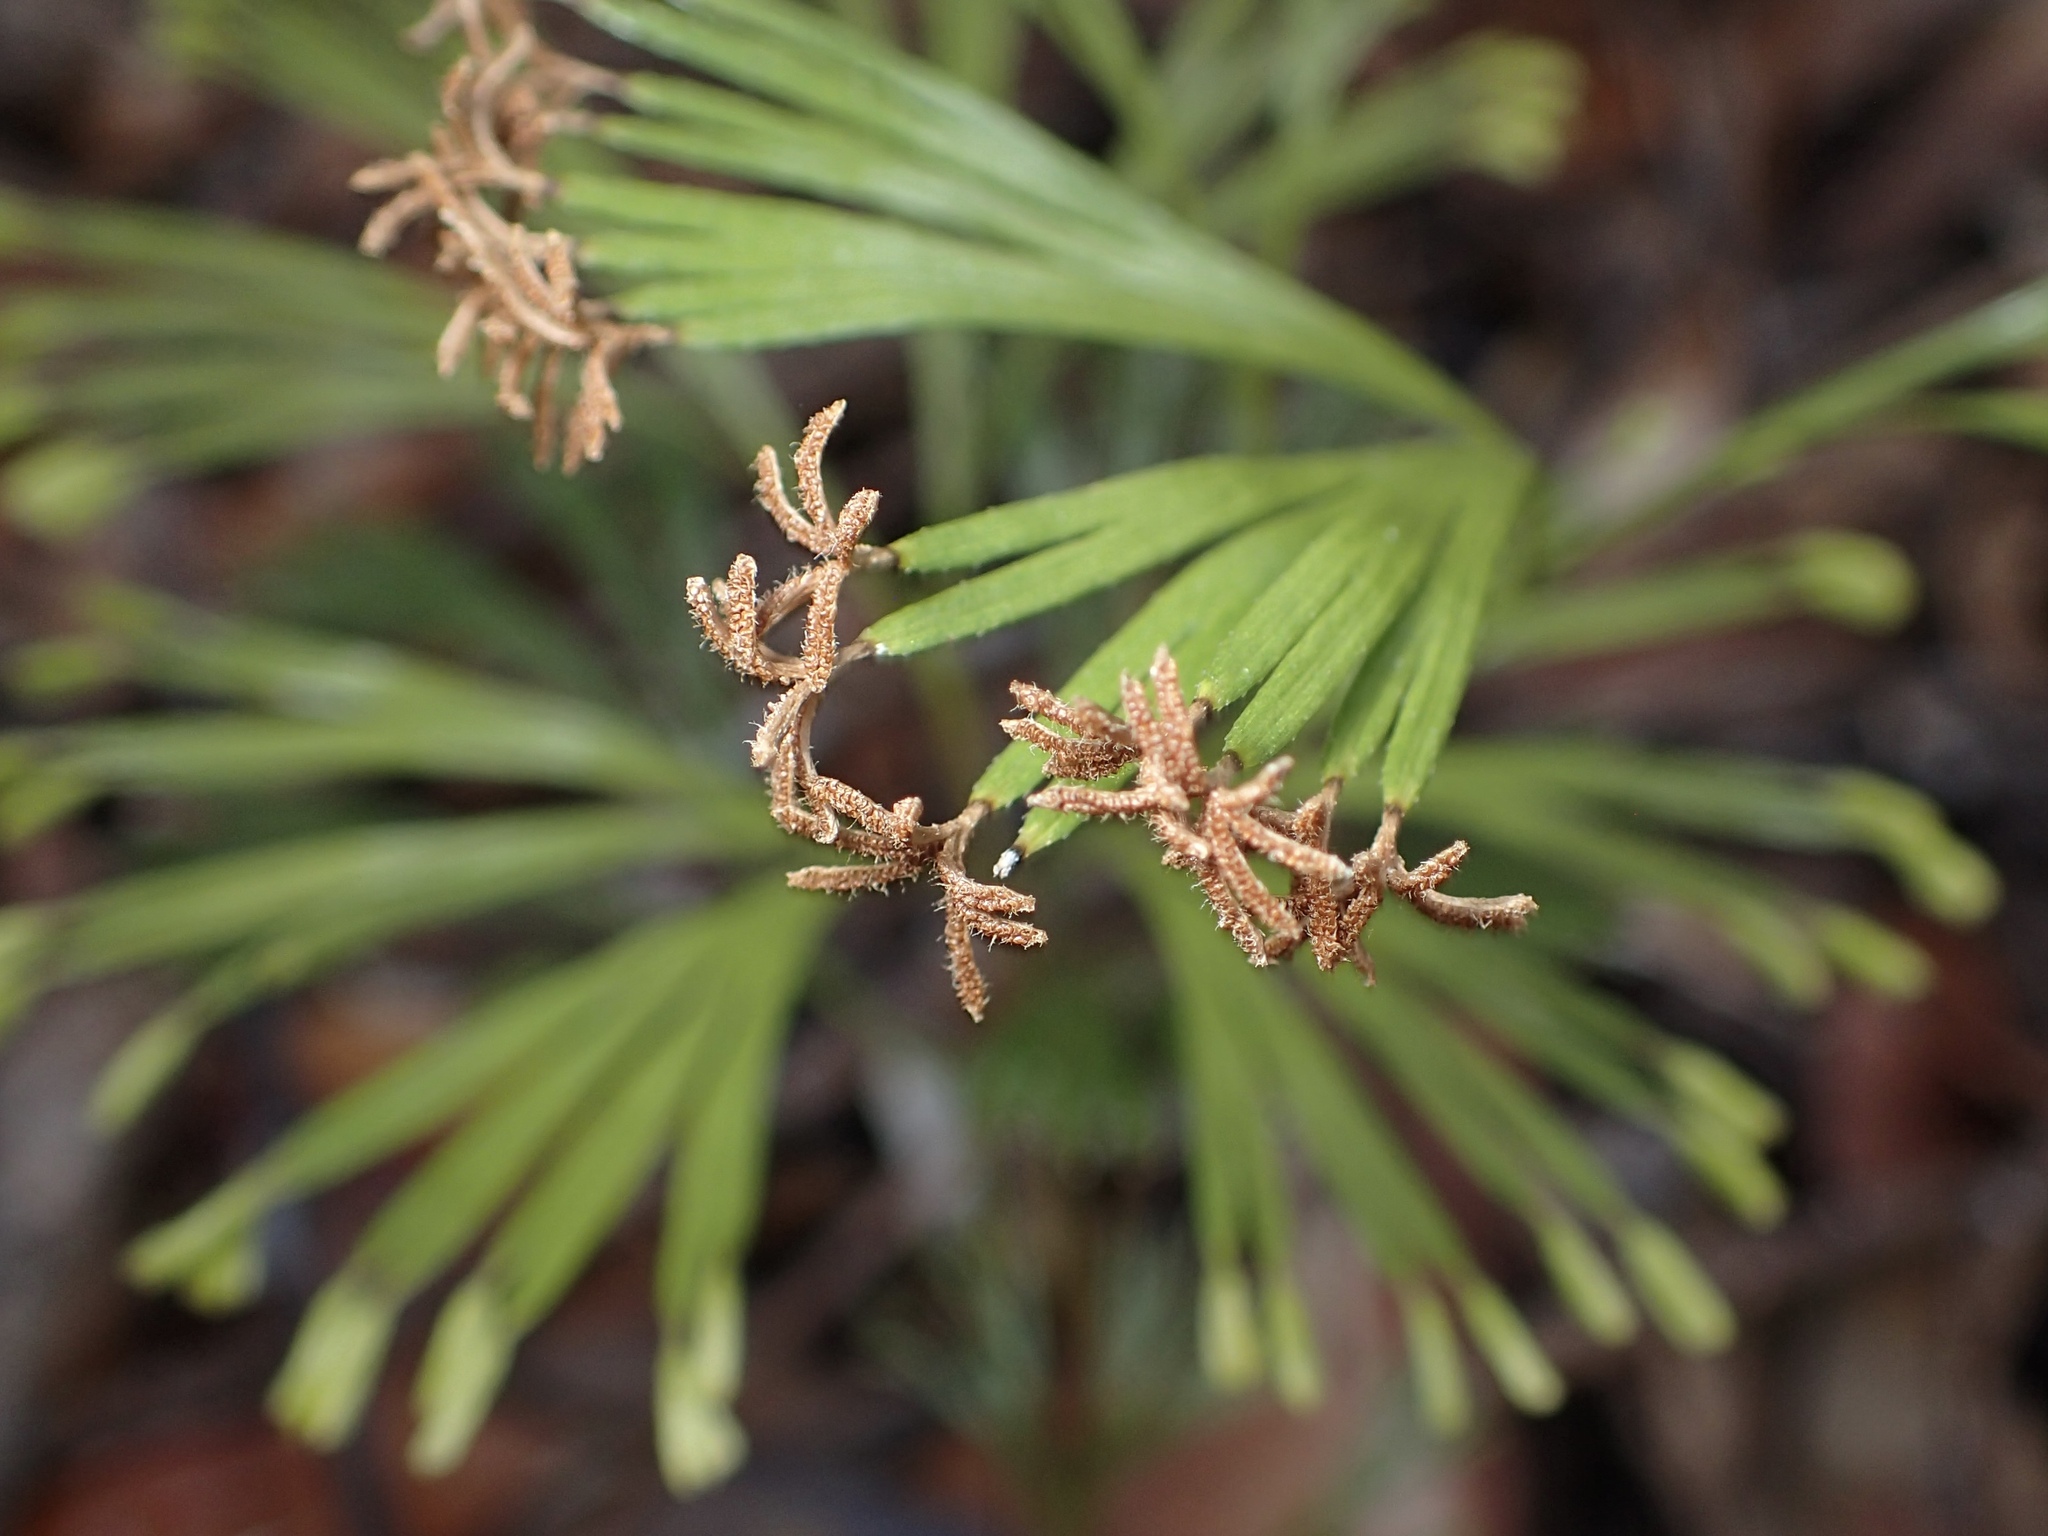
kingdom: Plantae
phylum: Tracheophyta
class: Polypodiopsida
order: Schizaeales
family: Schizaeaceae
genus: Schizaea
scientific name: Schizaea dichotoma
